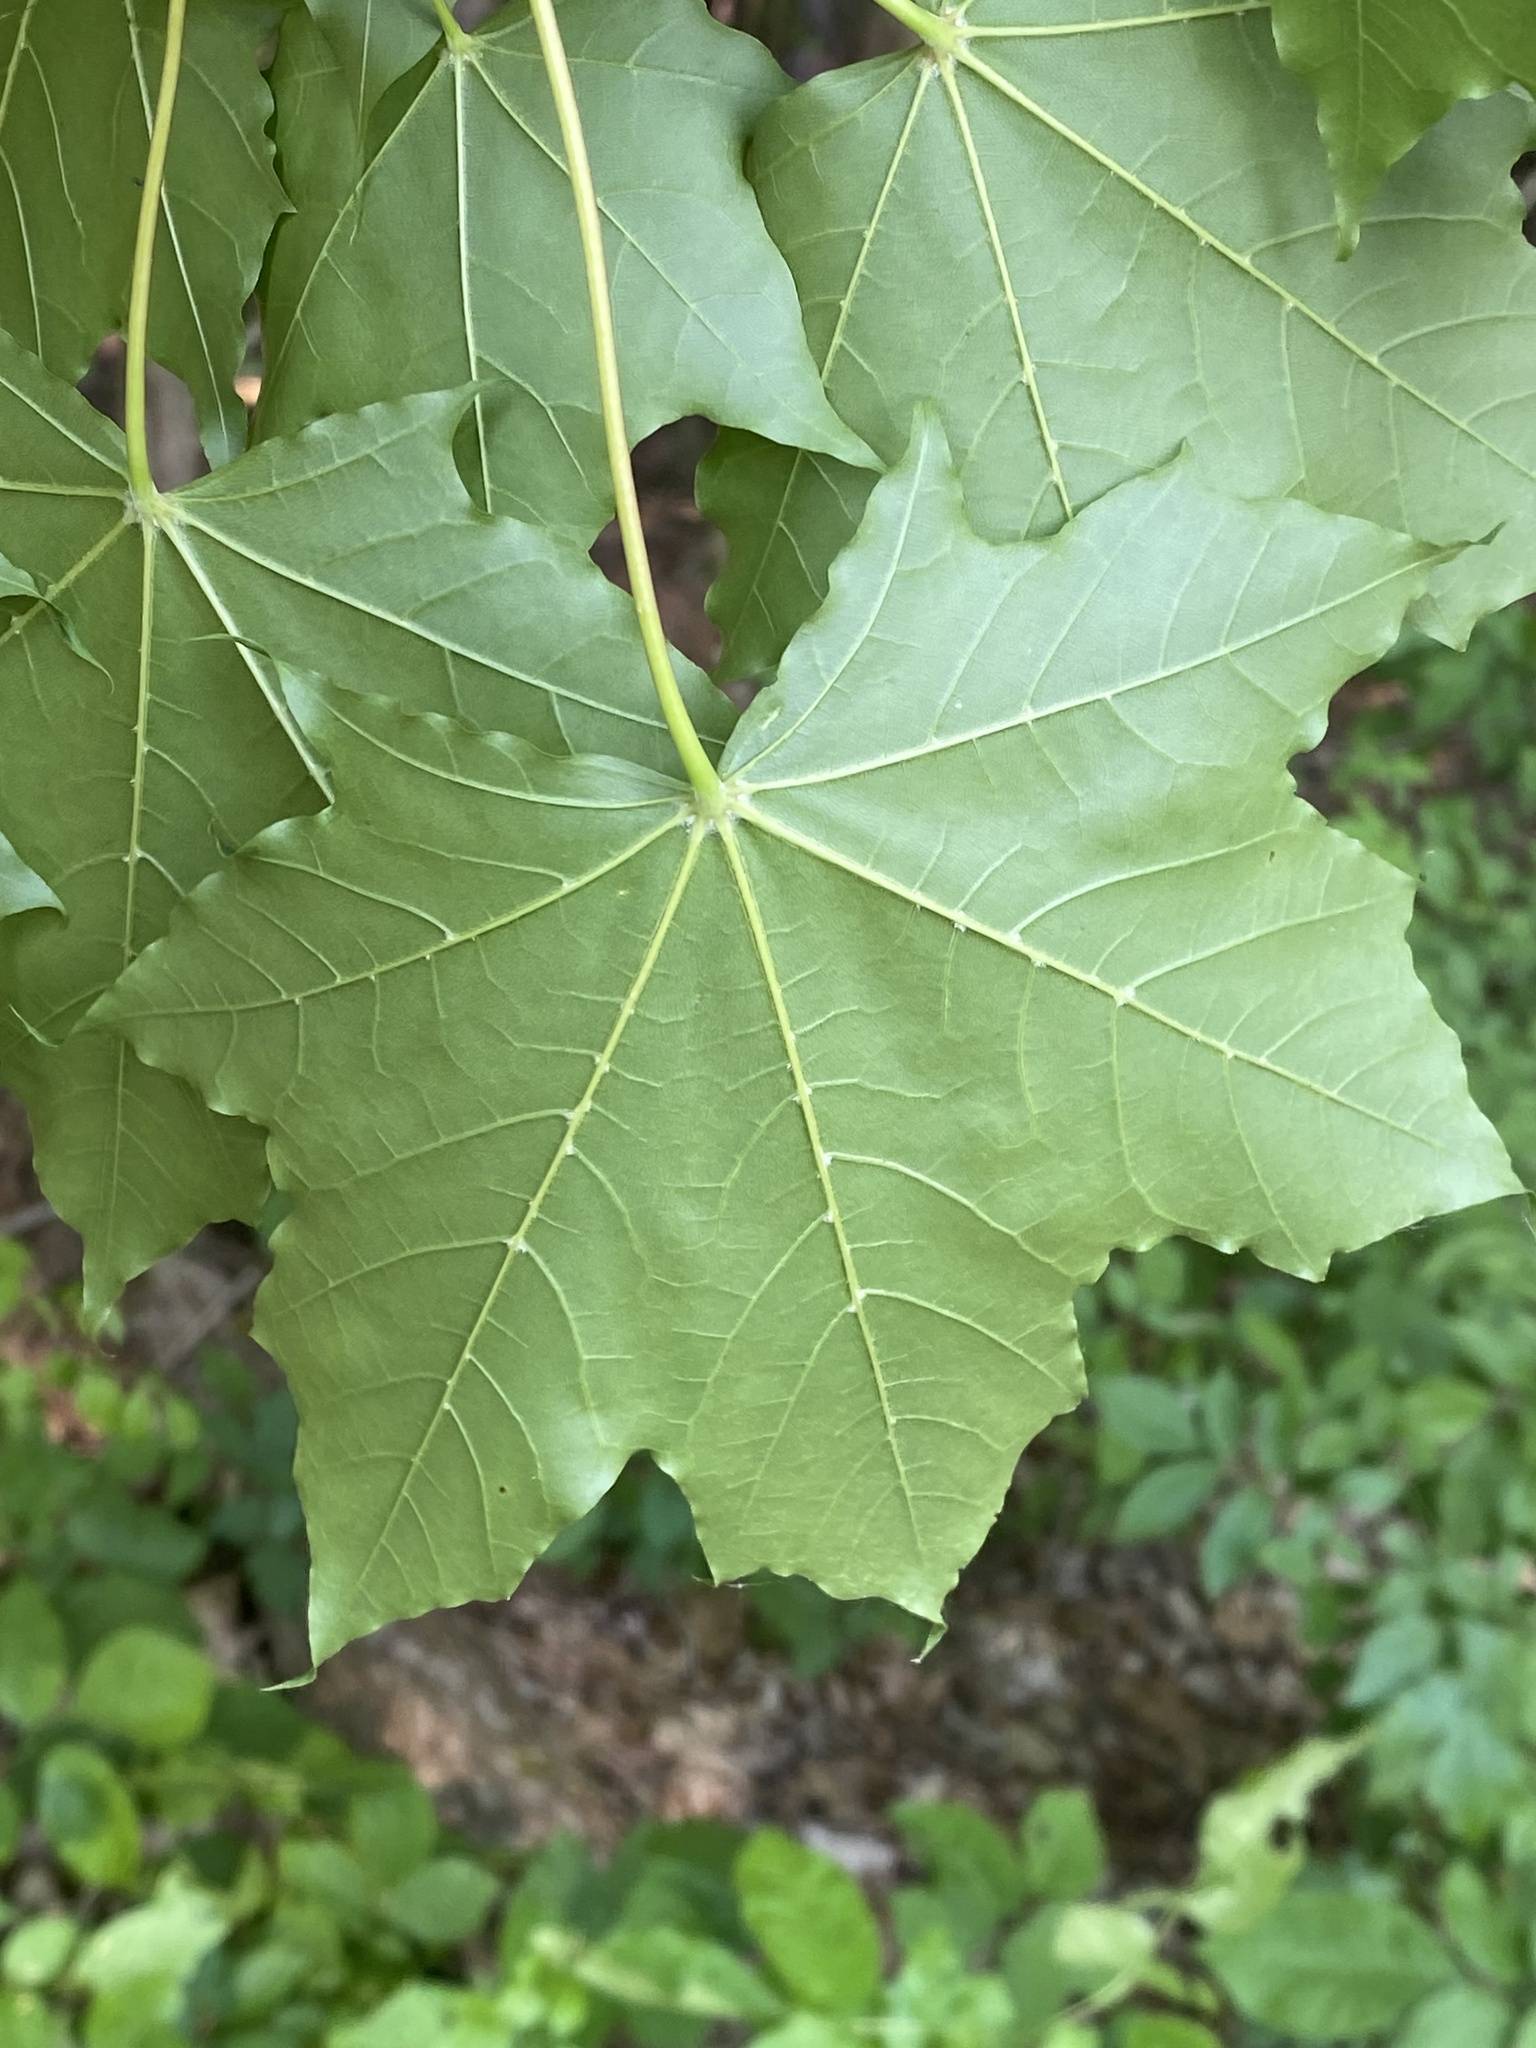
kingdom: Plantae
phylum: Tracheophyta
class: Magnoliopsida
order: Sapindales
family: Sapindaceae
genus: Acer
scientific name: Acer platanoides
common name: Norway maple
